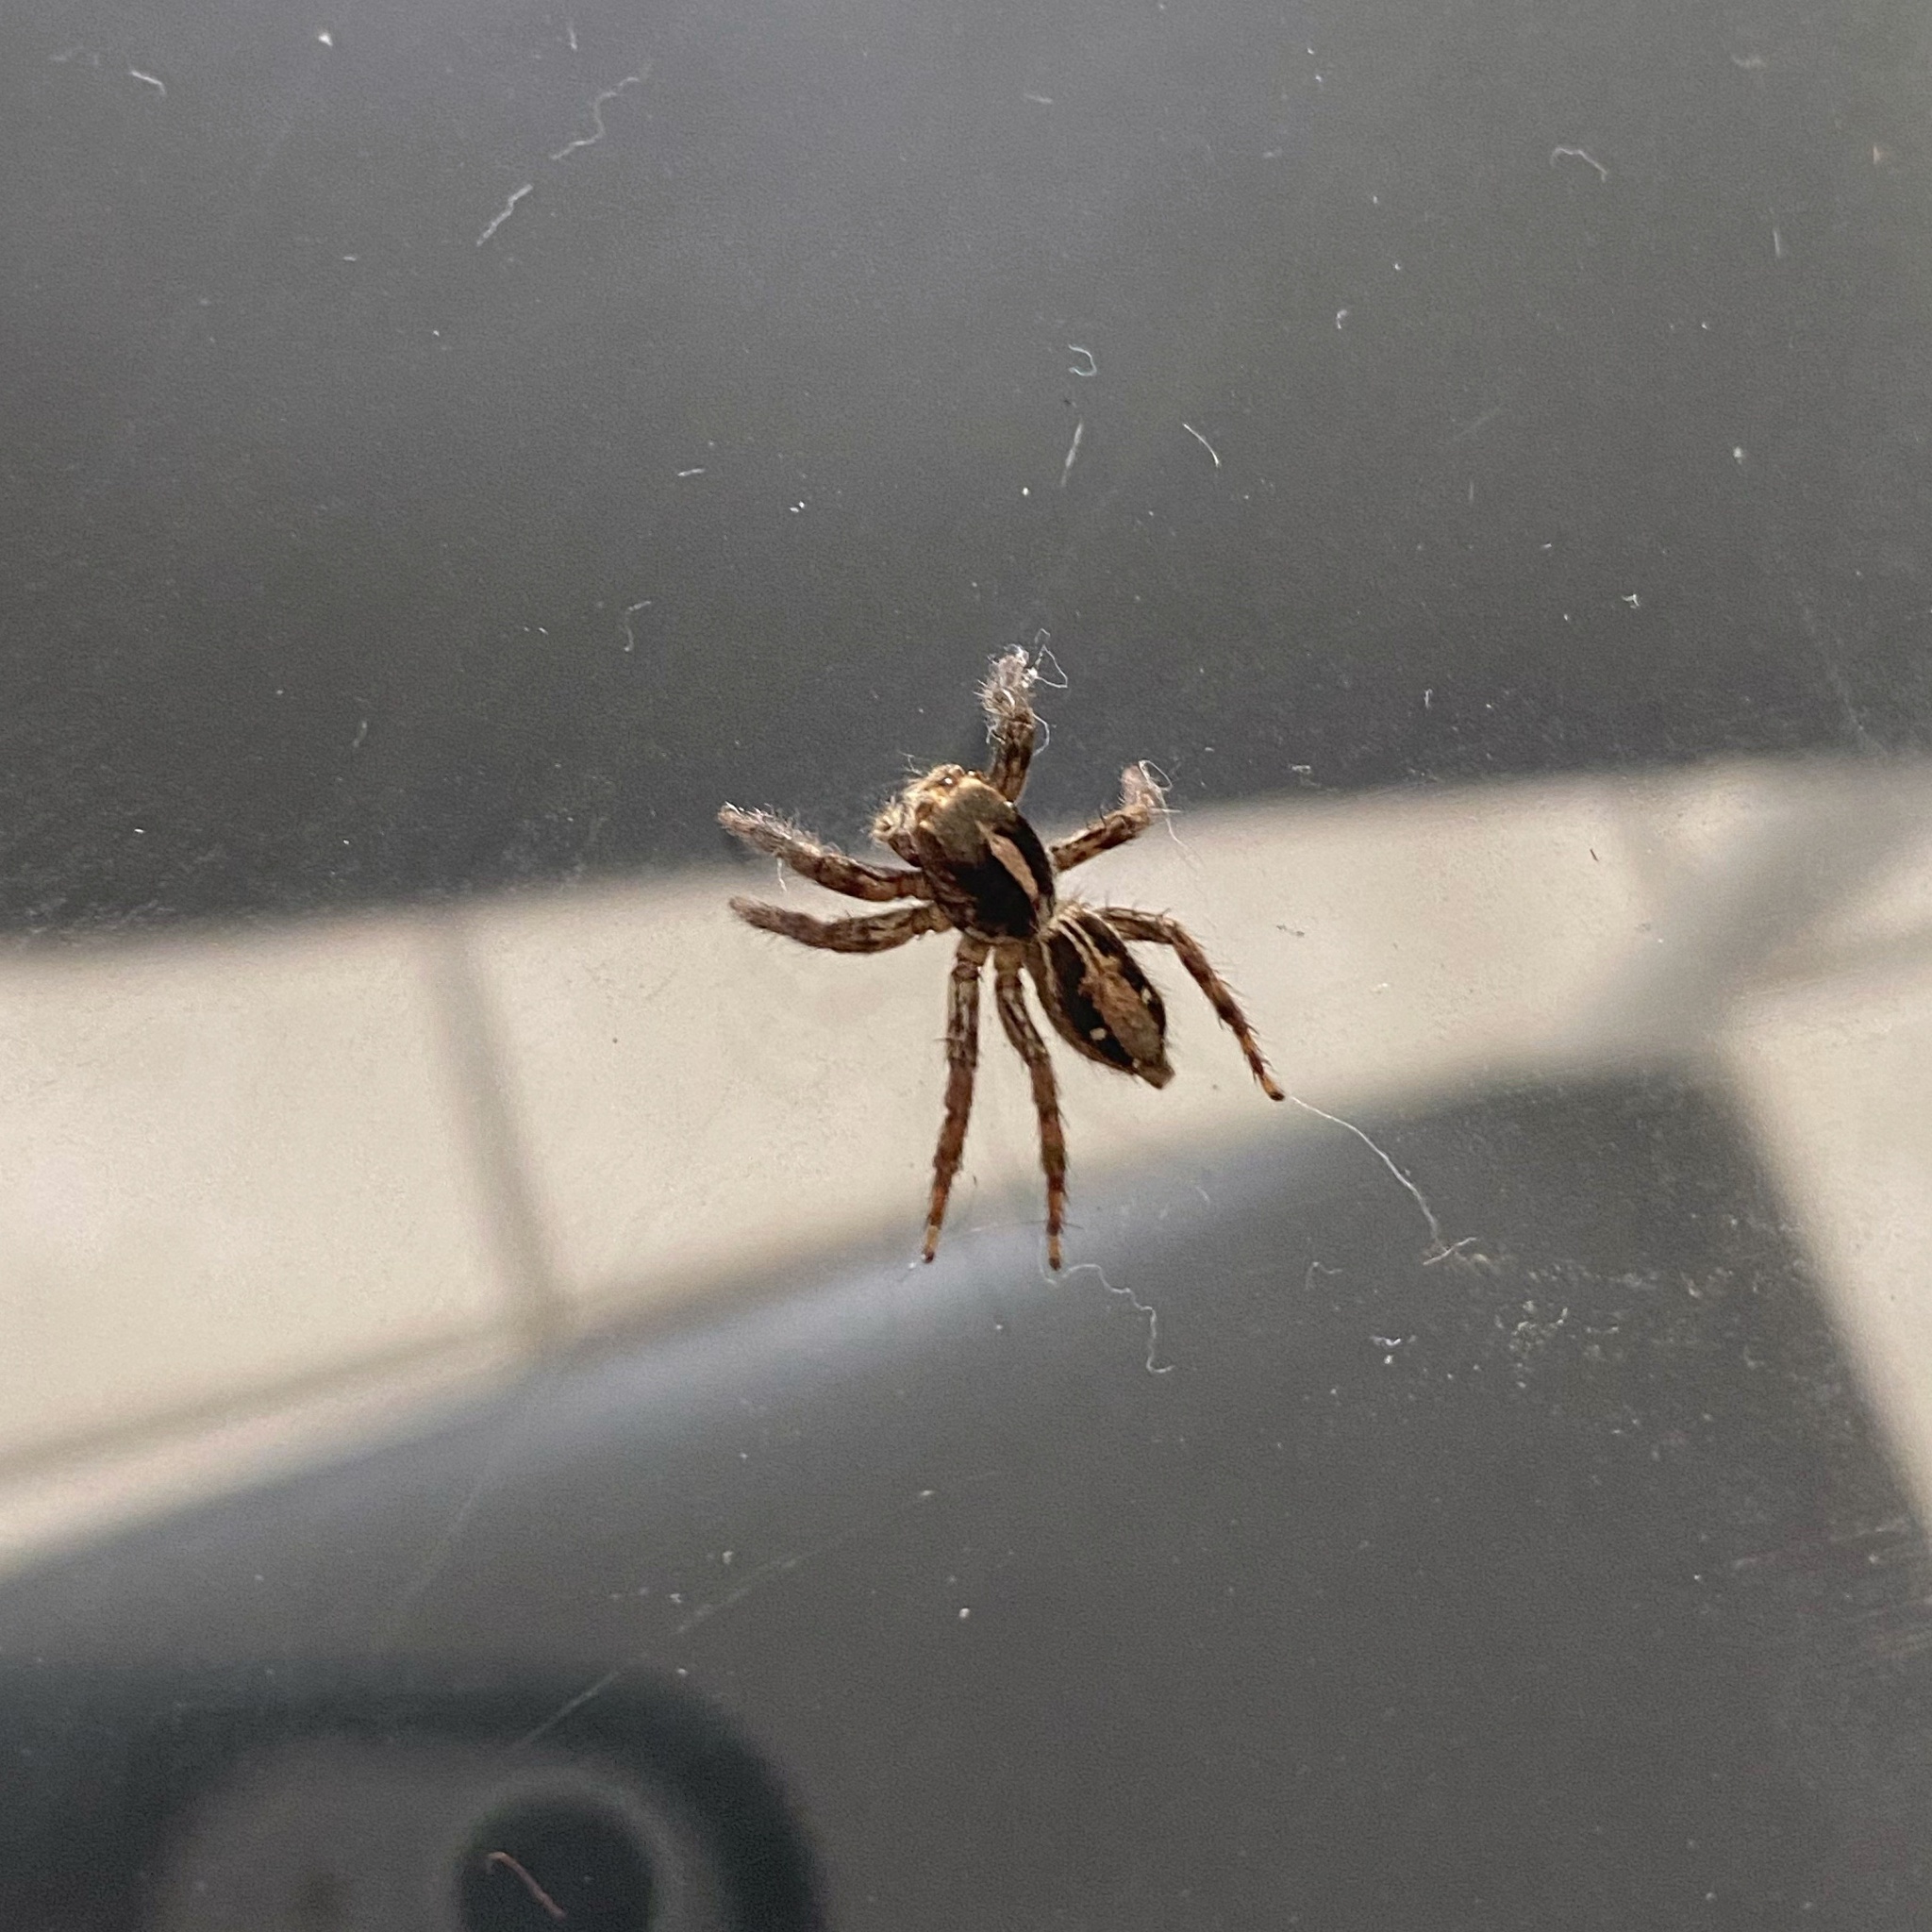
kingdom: Animalia
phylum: Arthropoda
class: Arachnida
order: Araneae
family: Salticidae
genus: Plexippus
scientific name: Plexippus paykulli
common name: Pantropical jumper
